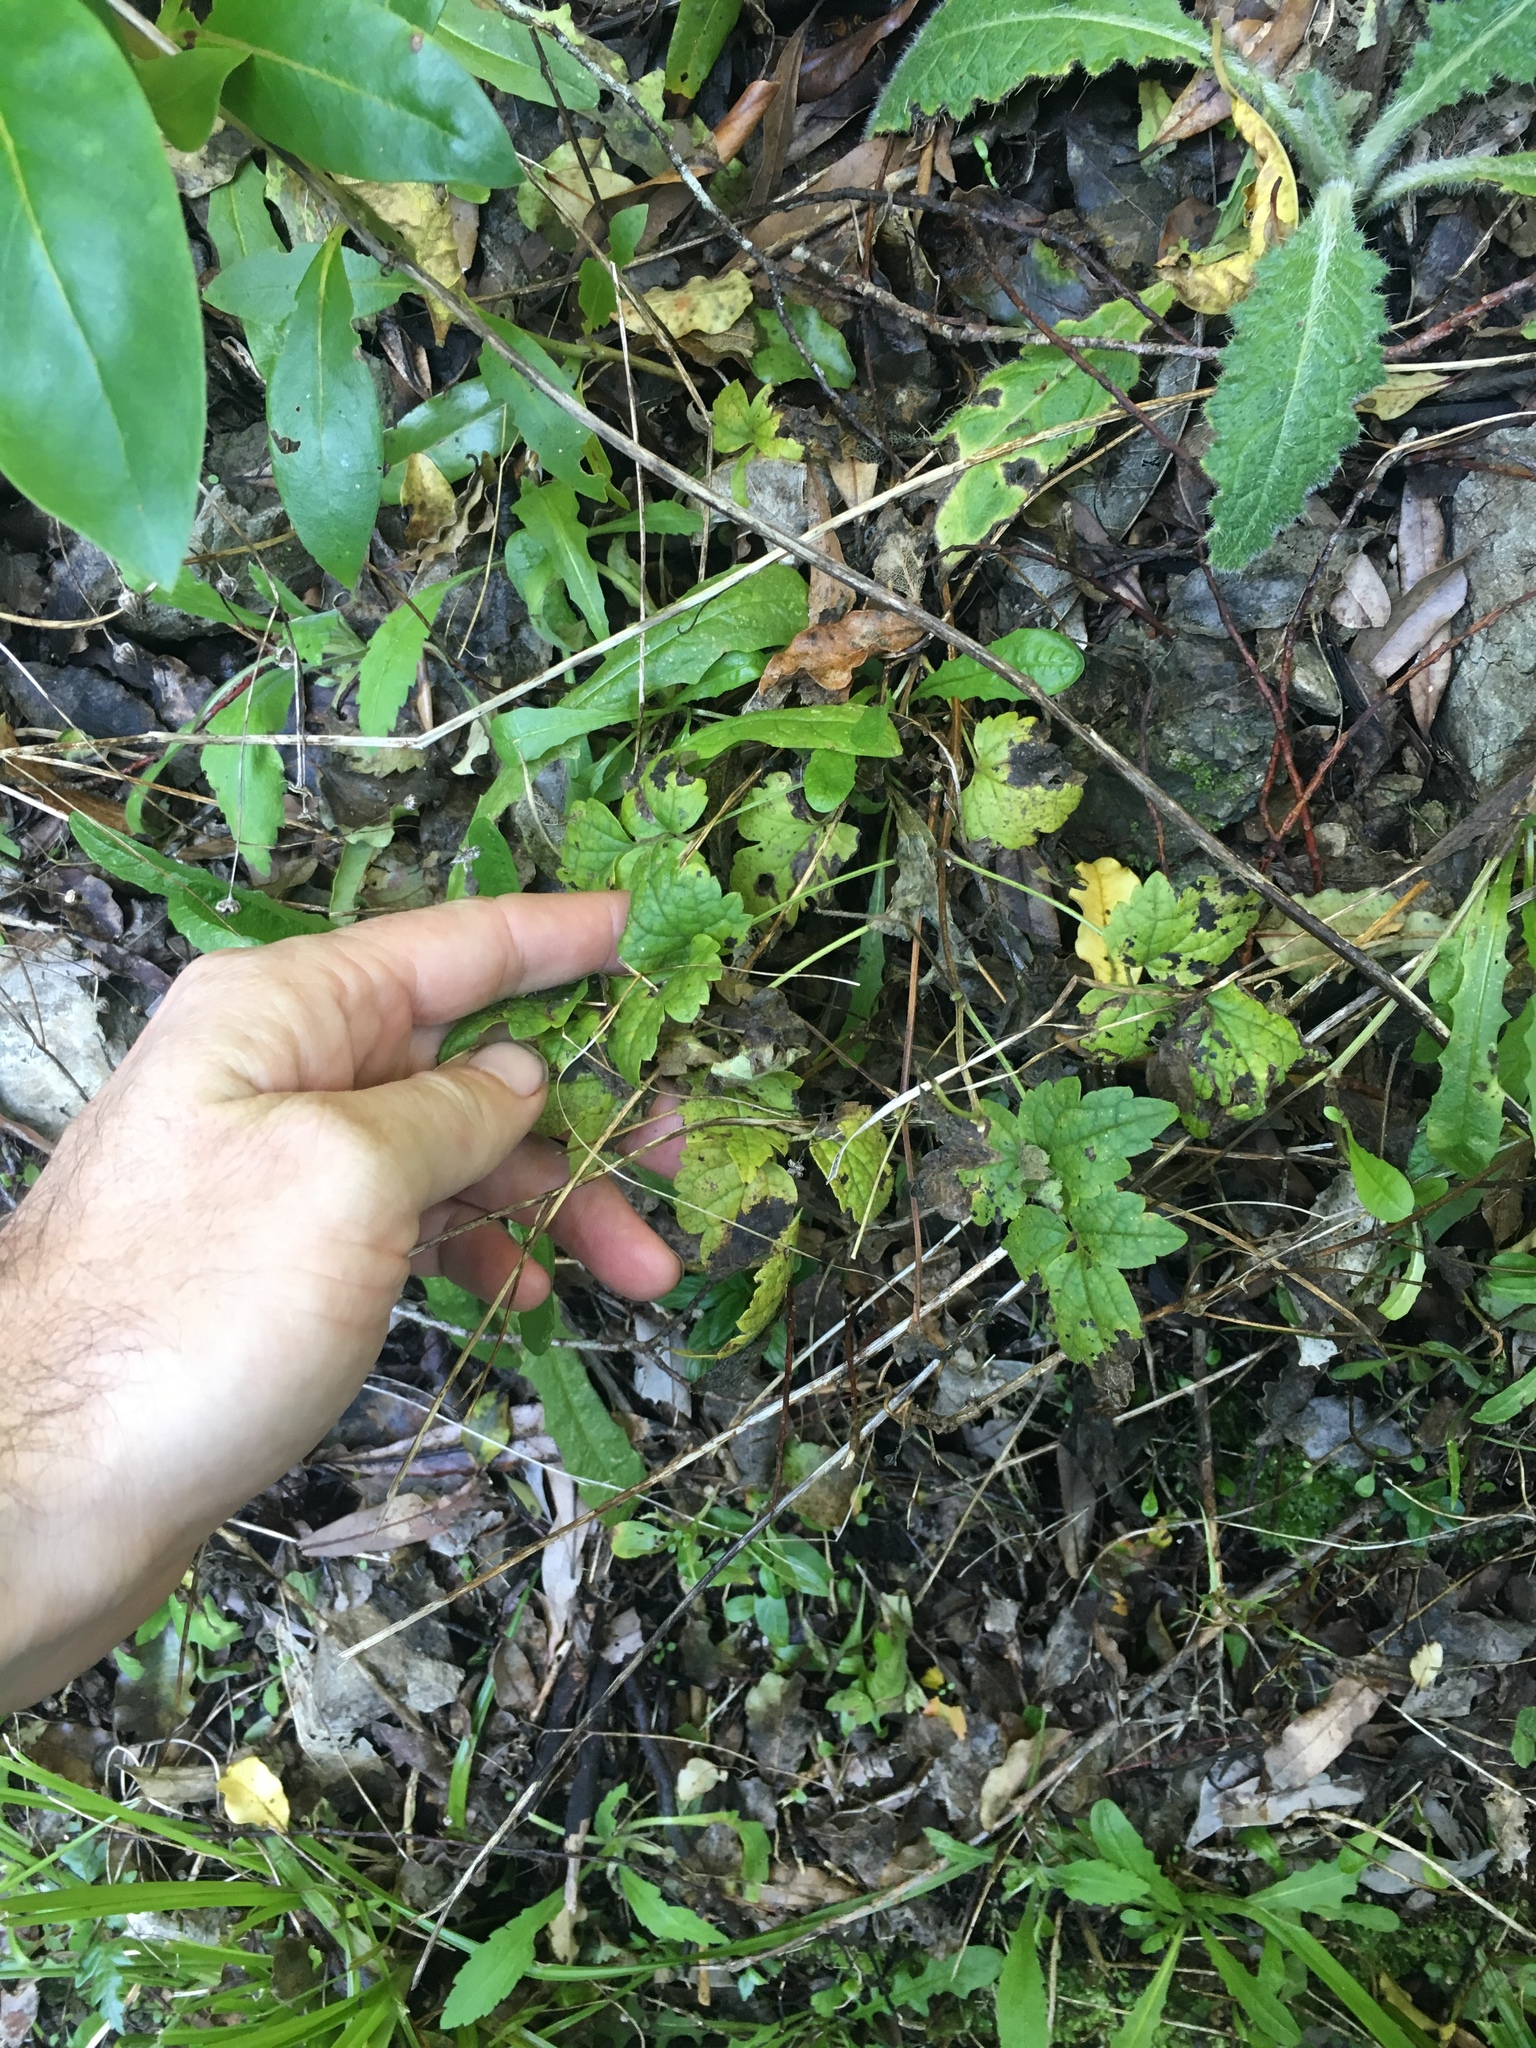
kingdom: Plantae
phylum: Tracheophyta
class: Magnoliopsida
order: Ranunculales
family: Ranunculaceae
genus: Clematis
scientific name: Clematis vitalba
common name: Evergreen clematis
